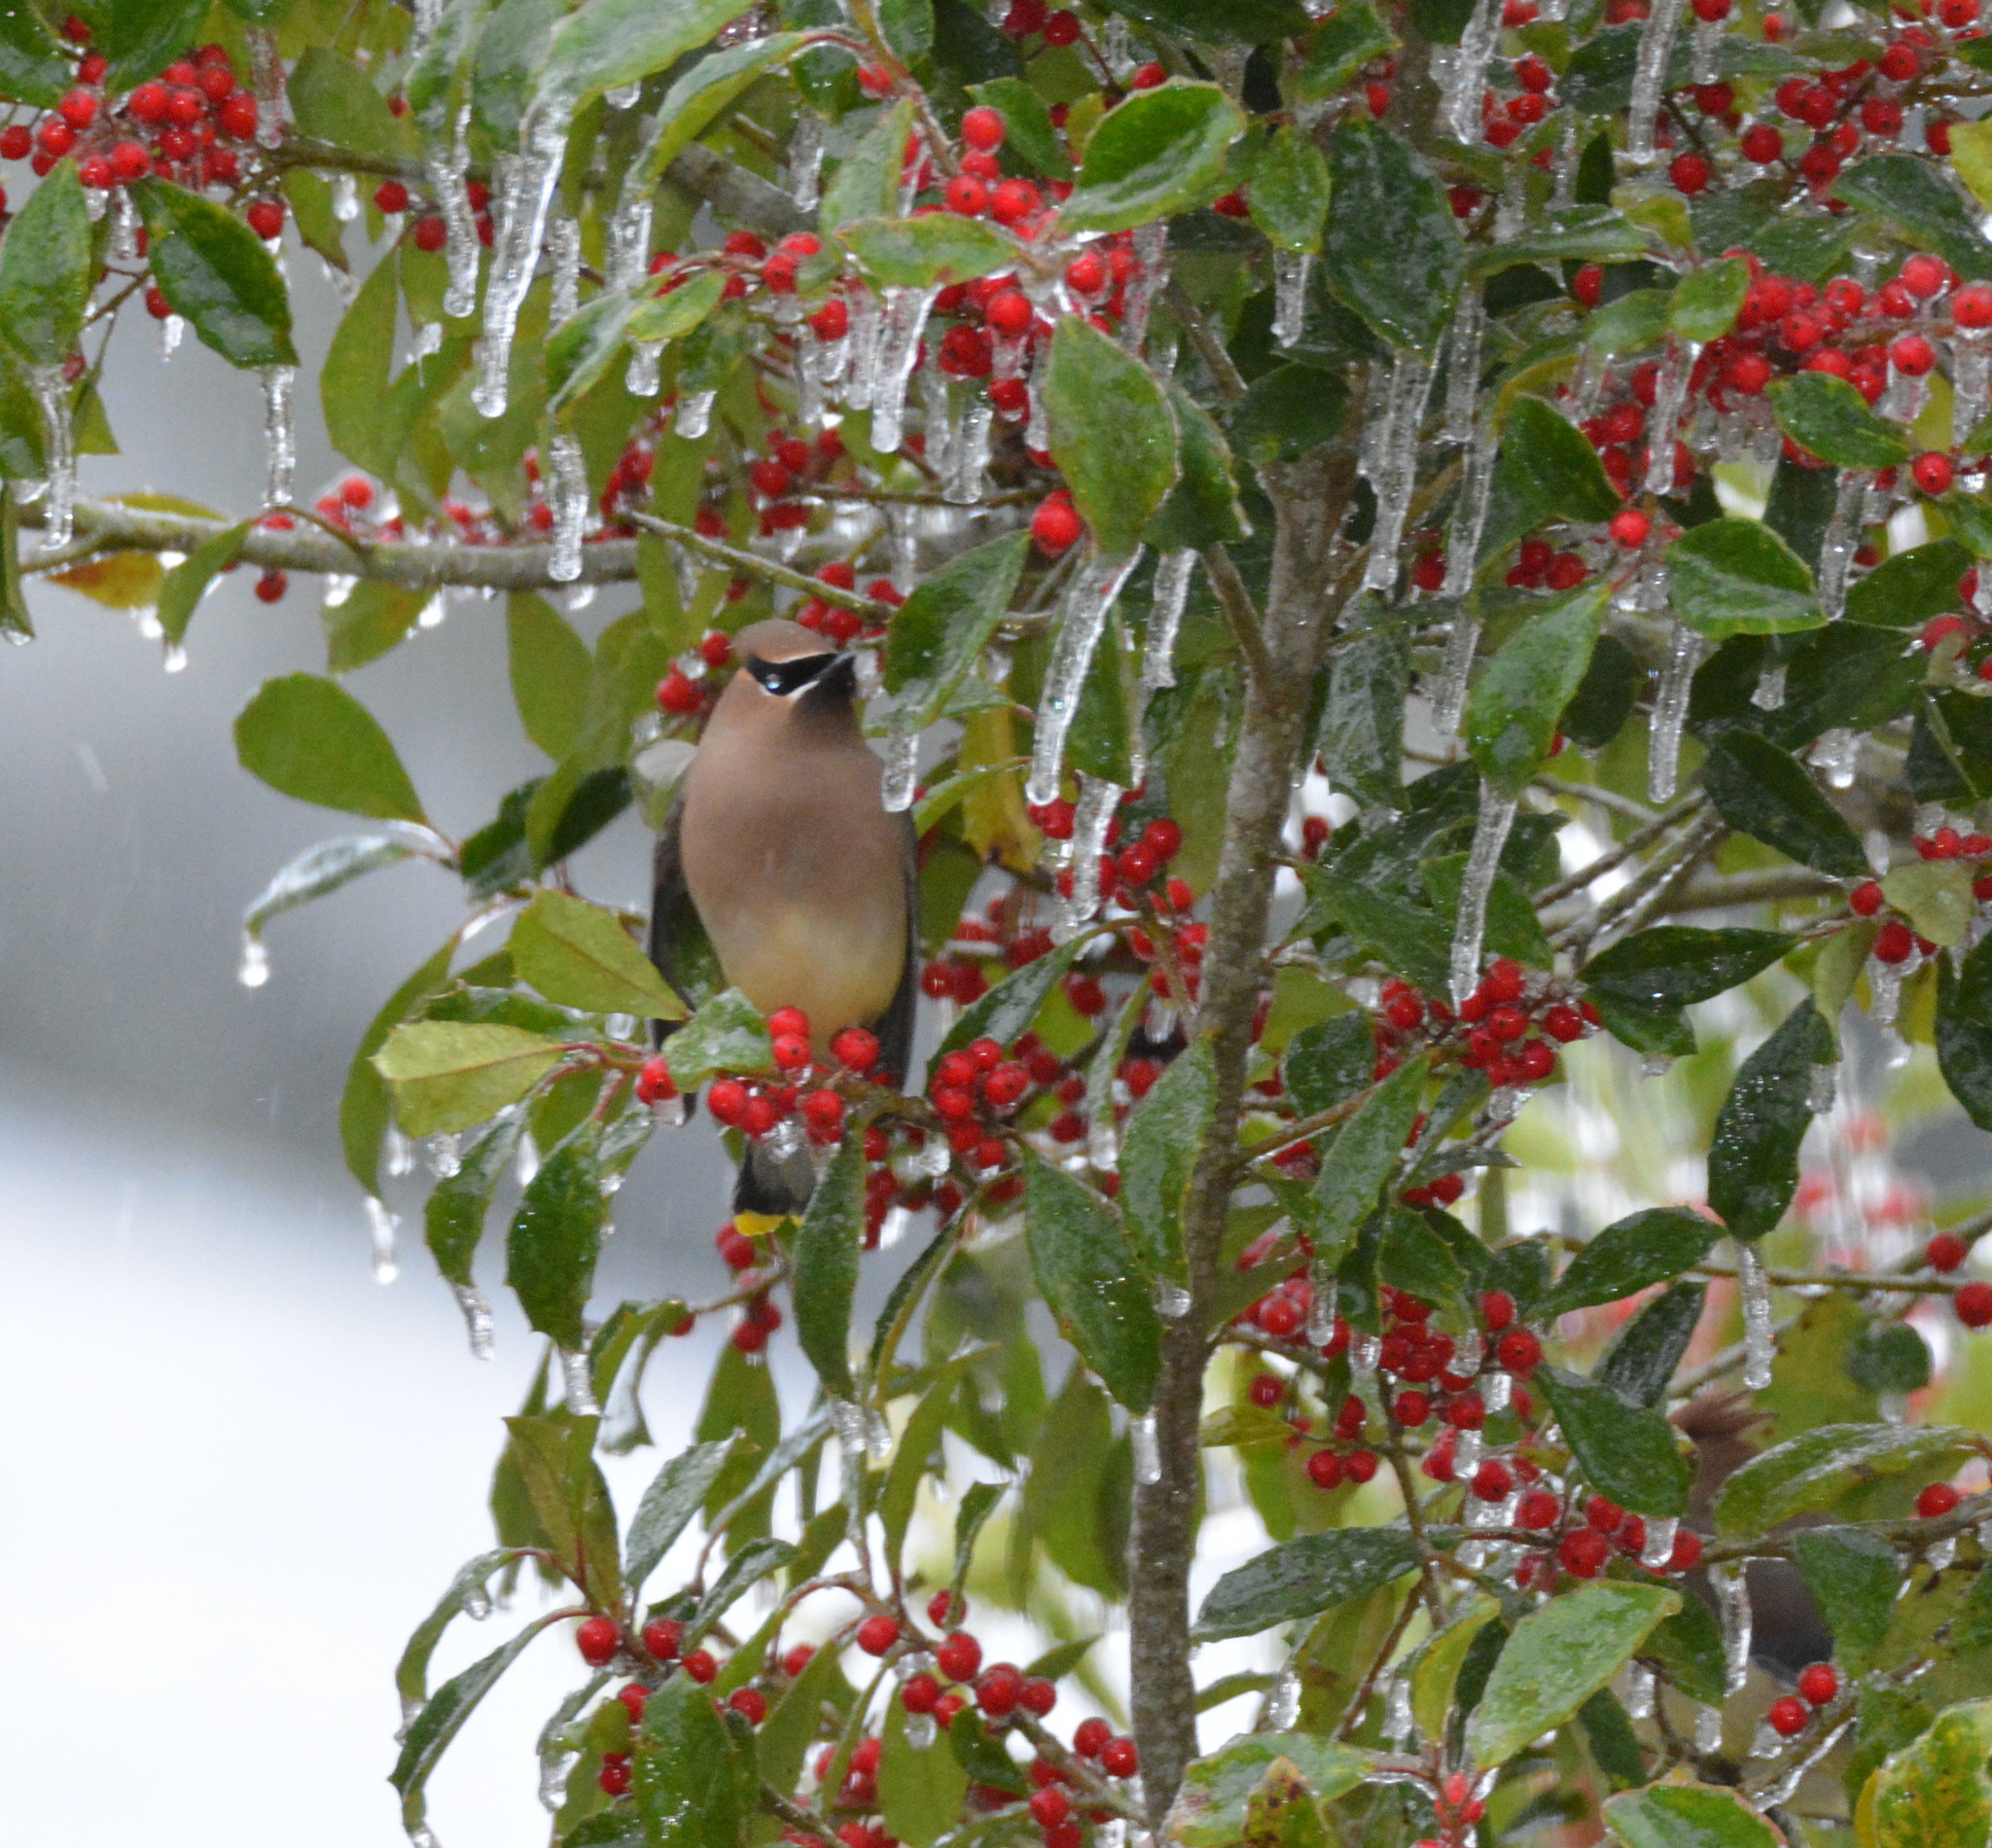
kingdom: Animalia
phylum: Chordata
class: Aves
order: Passeriformes
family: Bombycillidae
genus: Bombycilla
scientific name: Bombycilla cedrorum
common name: Cedar waxwing
